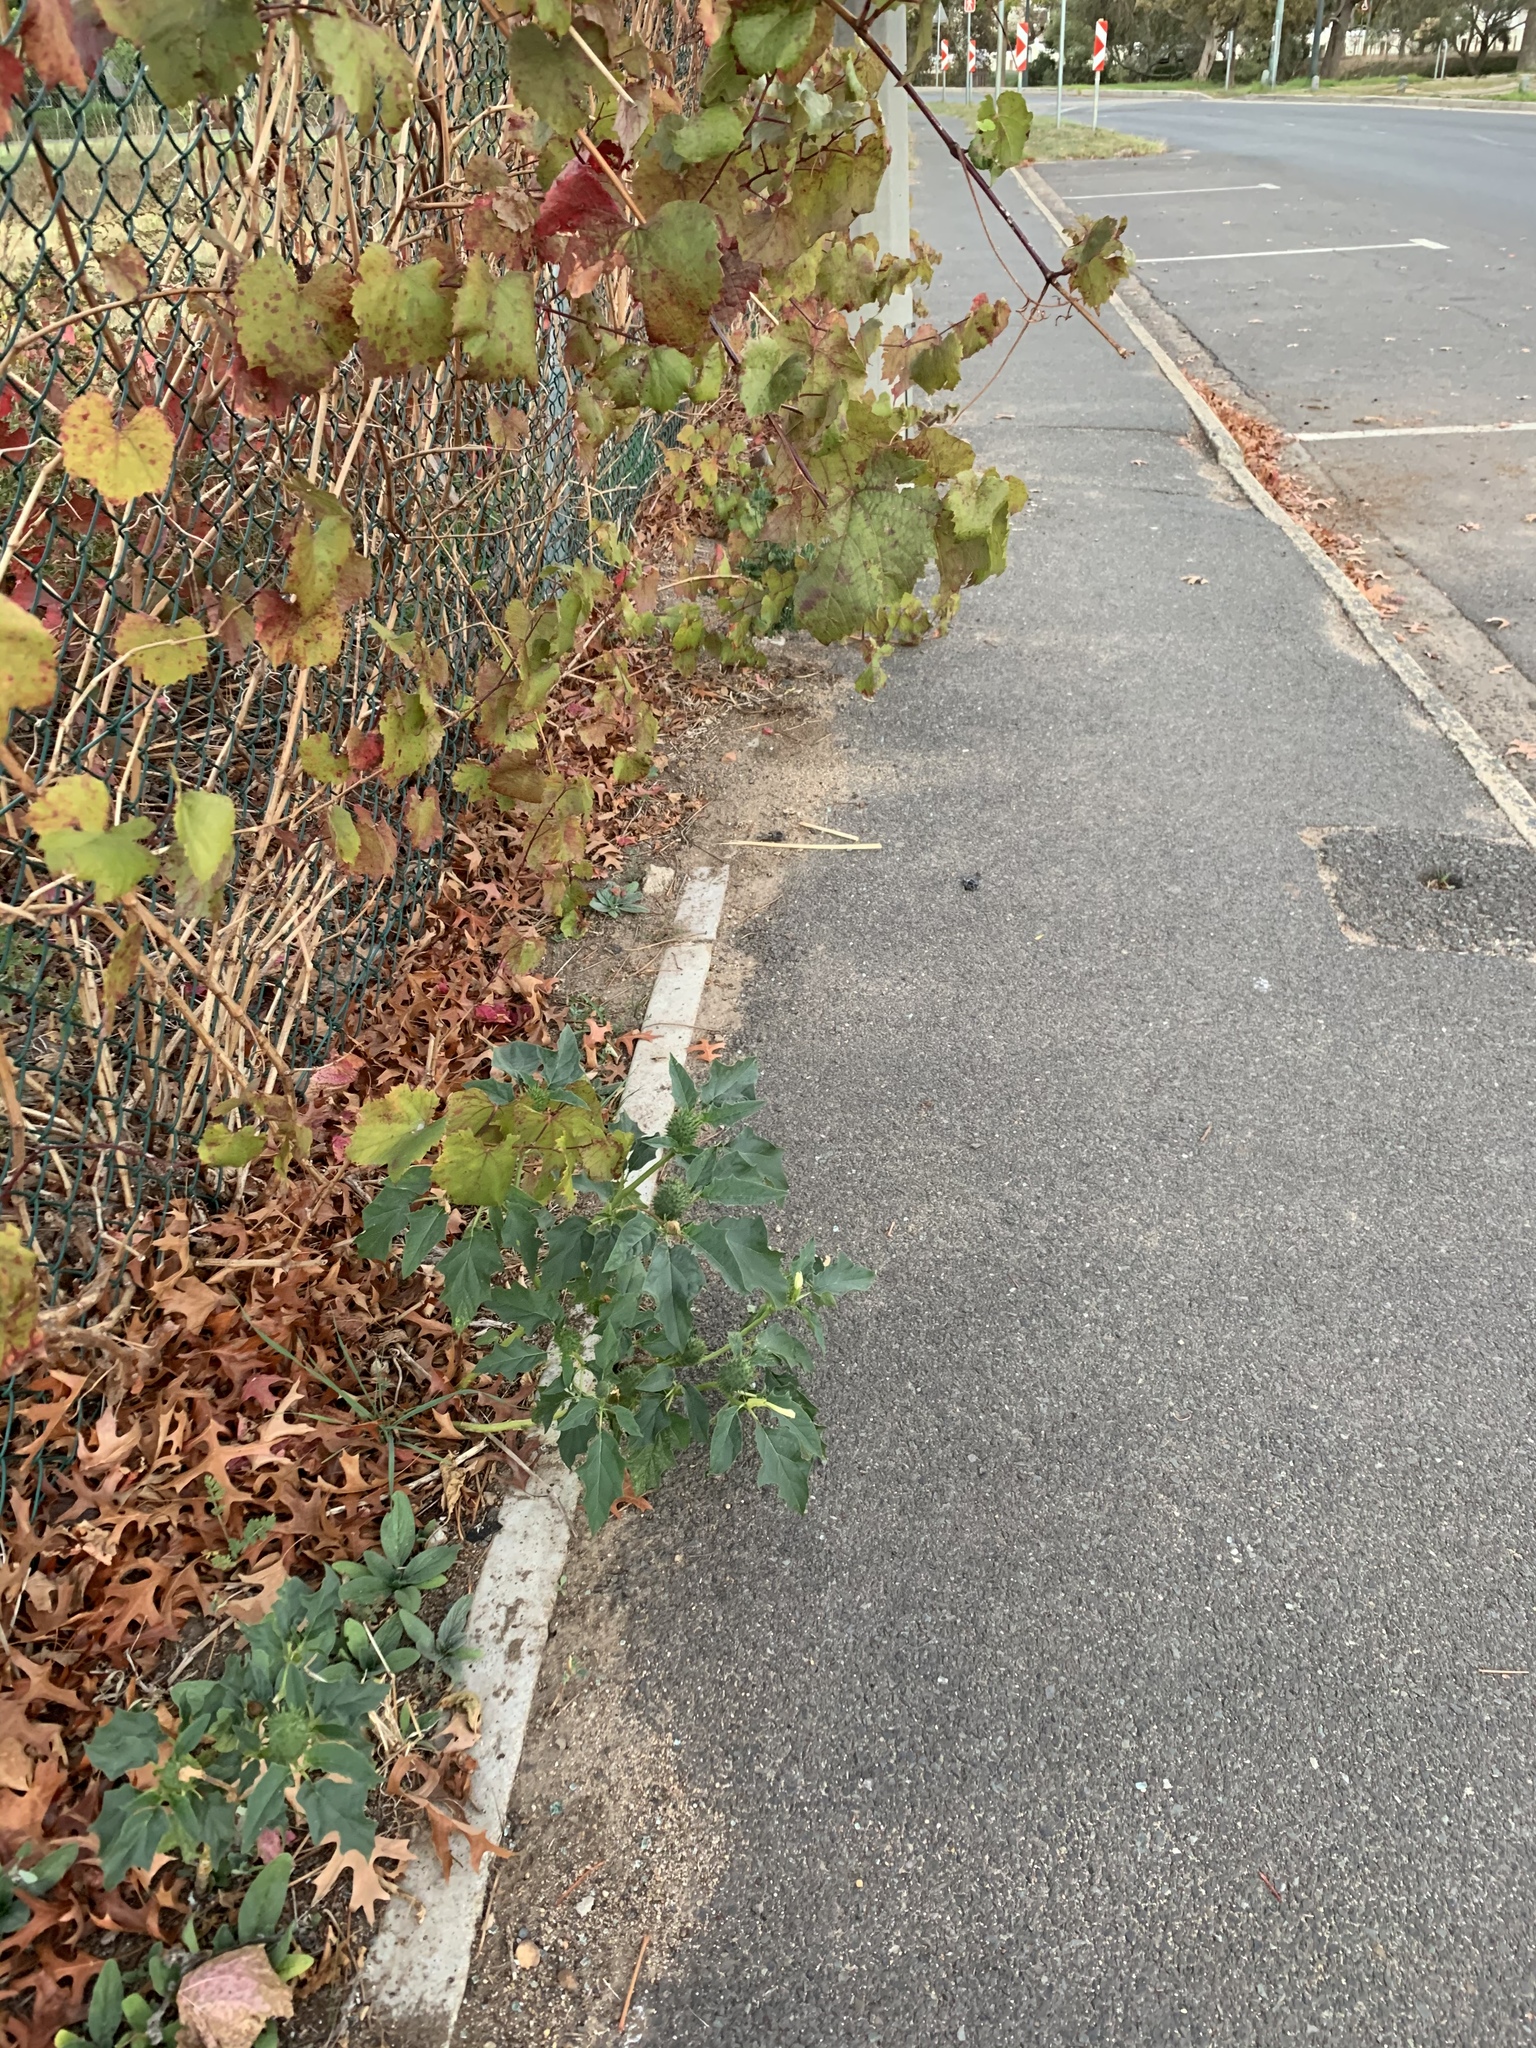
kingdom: Plantae
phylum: Tracheophyta
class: Magnoliopsida
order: Solanales
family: Solanaceae
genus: Datura
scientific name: Datura stramonium
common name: Thorn-apple
